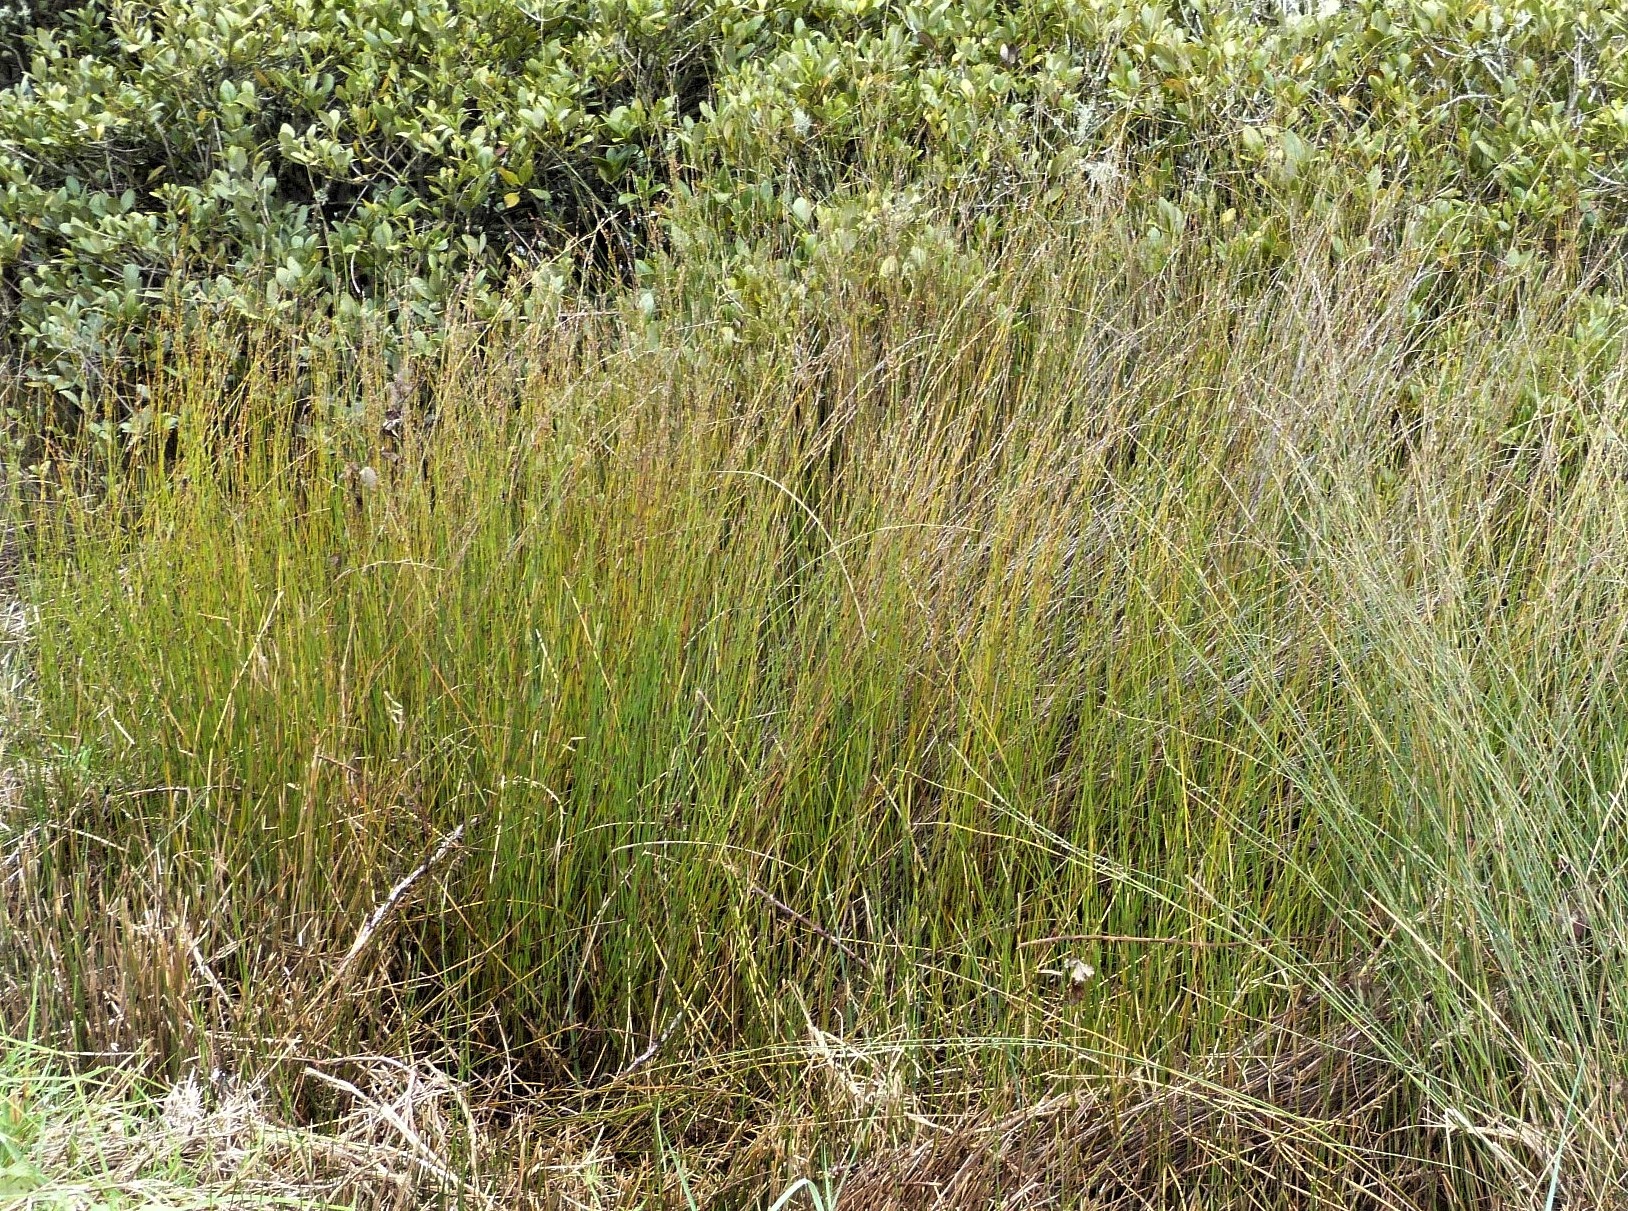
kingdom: Plantae
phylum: Tracheophyta
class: Liliopsida
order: Poales
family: Restionaceae
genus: Apodasmia
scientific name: Apodasmia similis
